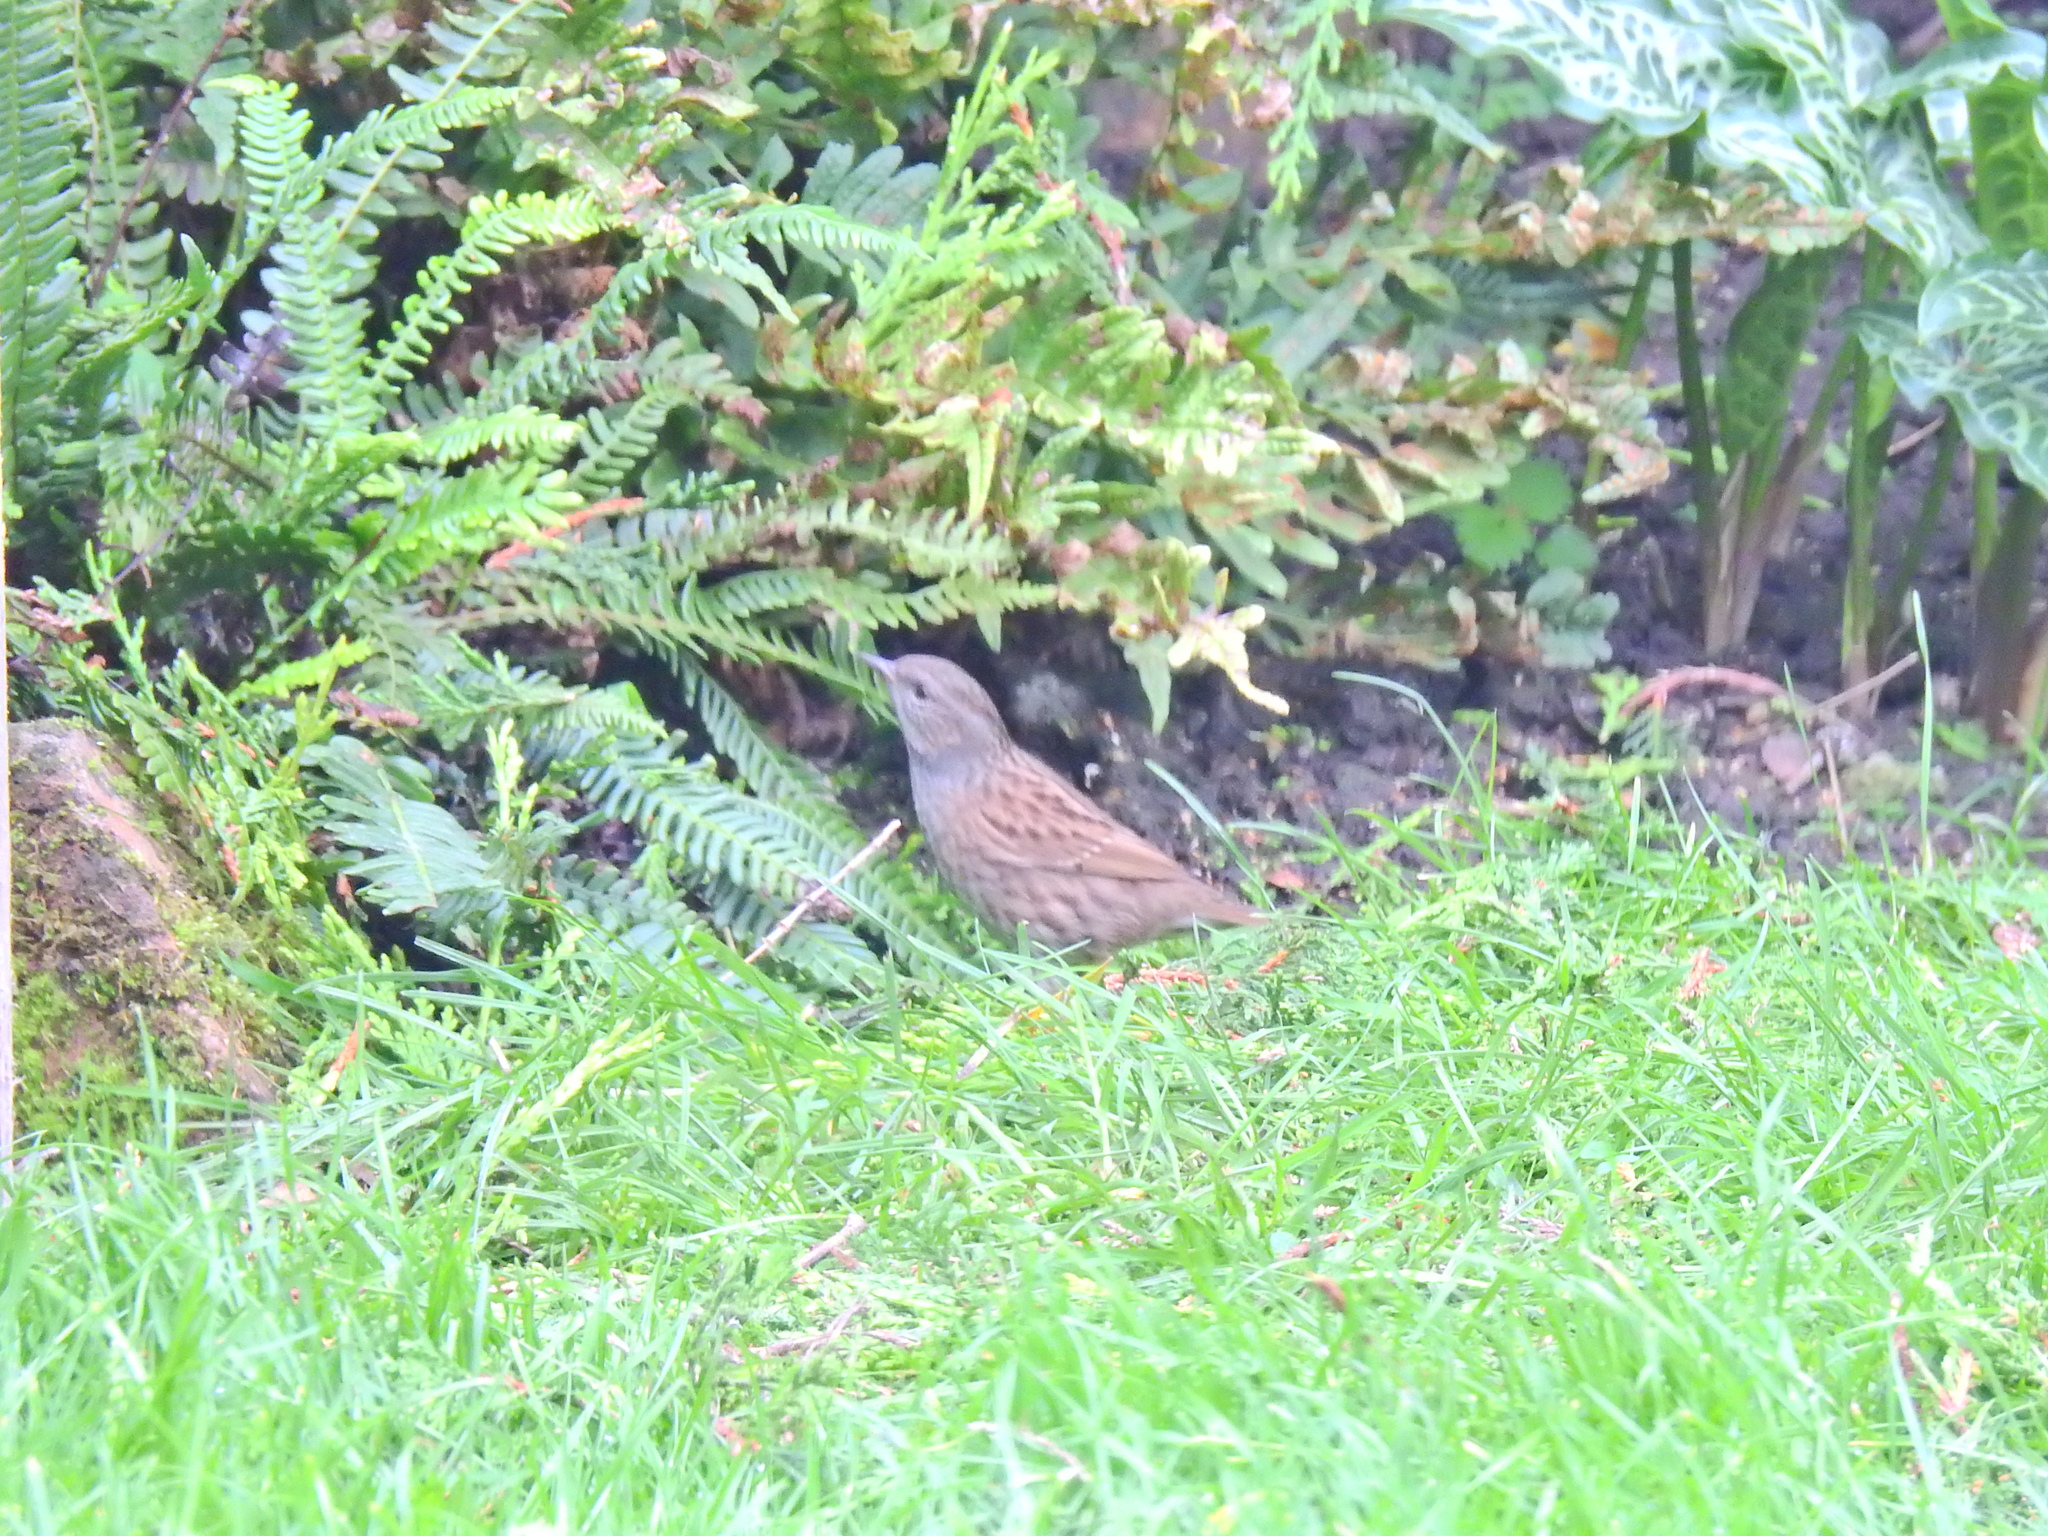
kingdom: Animalia
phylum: Chordata
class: Aves
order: Passeriformes
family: Prunellidae
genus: Prunella
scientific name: Prunella modularis
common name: Dunnock
